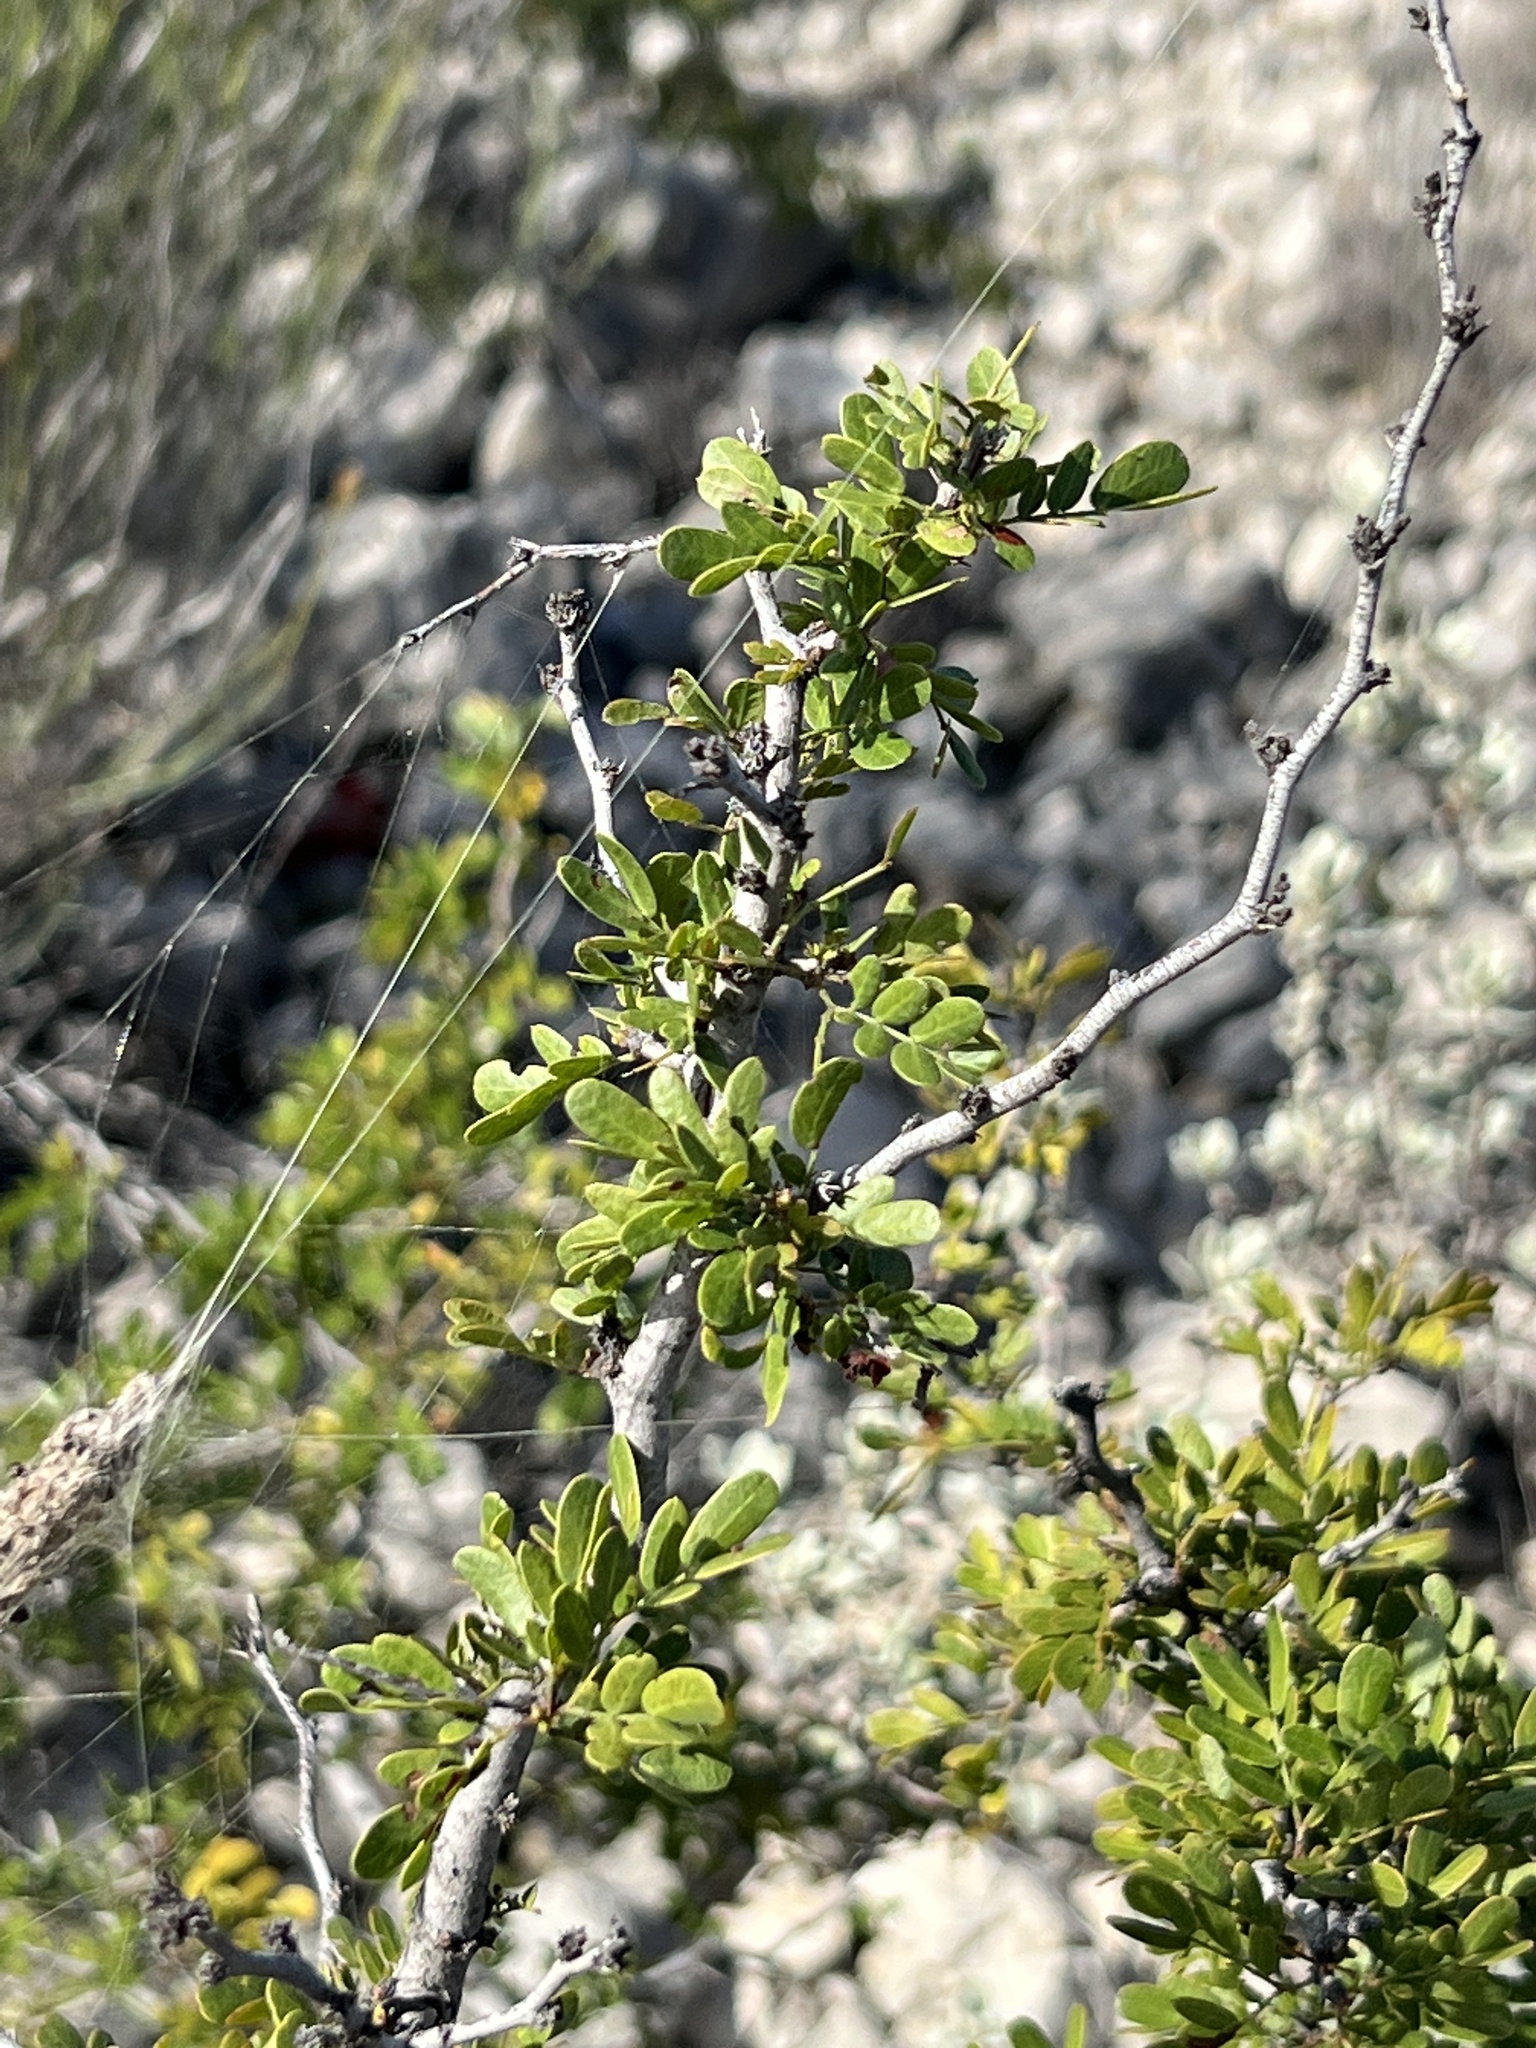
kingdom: Plantae
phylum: Tracheophyta
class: Magnoliopsida
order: Fabales
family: Fabaceae
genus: Vachellia
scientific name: Vachellia rigidula
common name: Blackbrush
